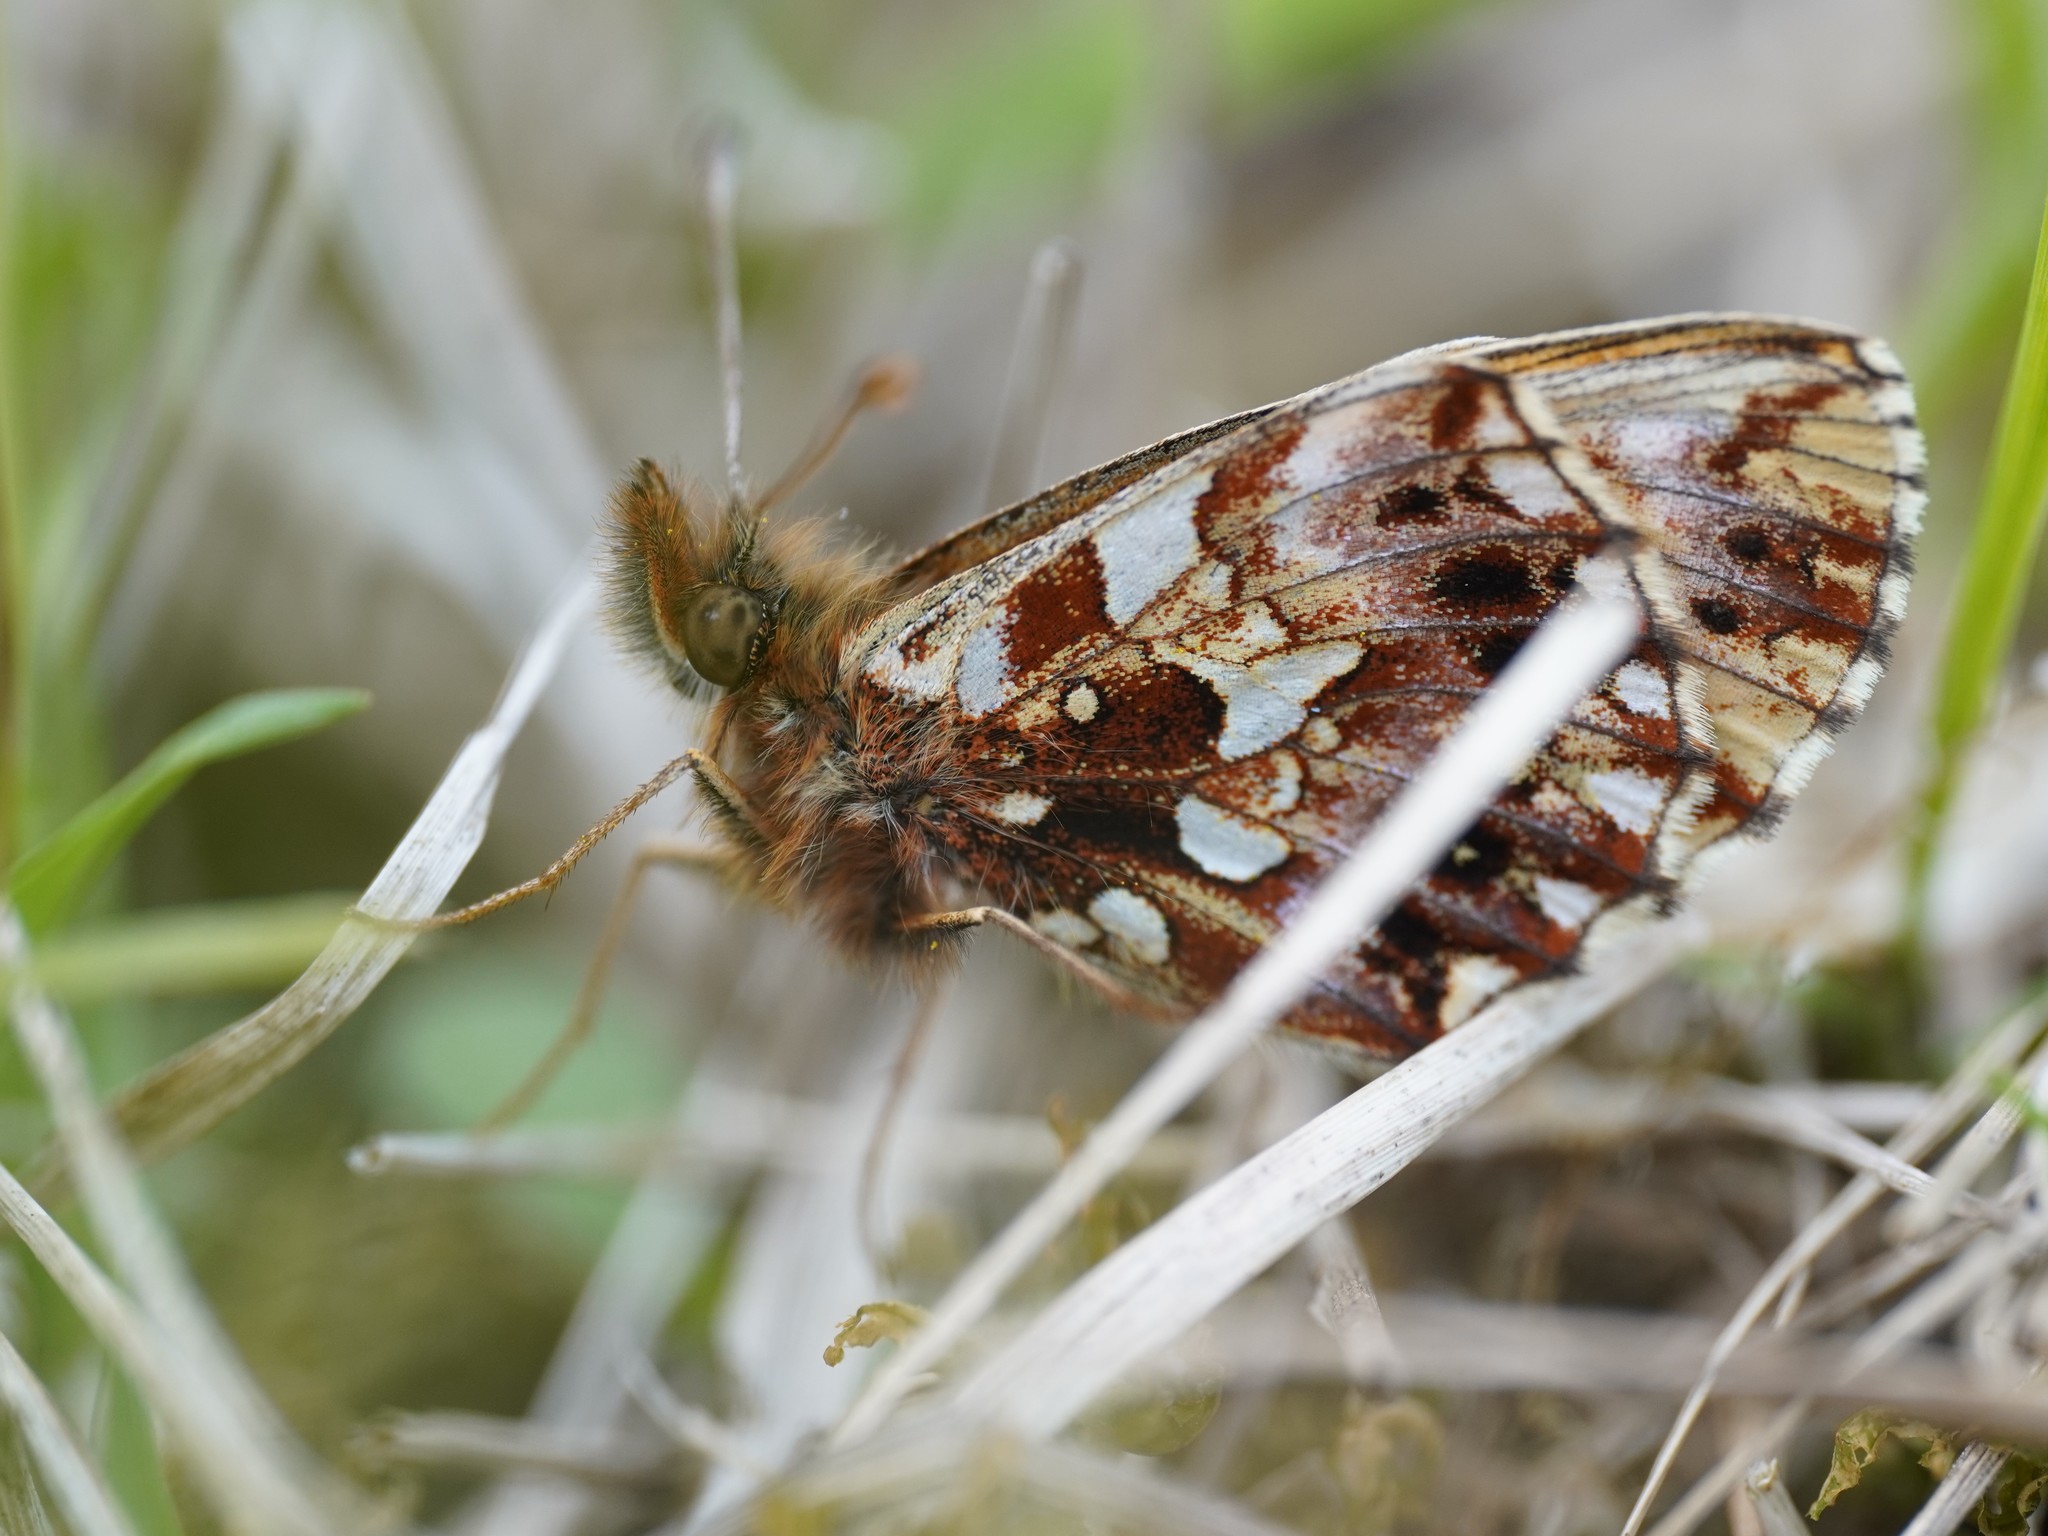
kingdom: Animalia
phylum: Arthropoda
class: Insecta
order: Lepidoptera
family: Nymphalidae
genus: Boloria
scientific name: Boloria dia
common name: Weaver's fritillary
